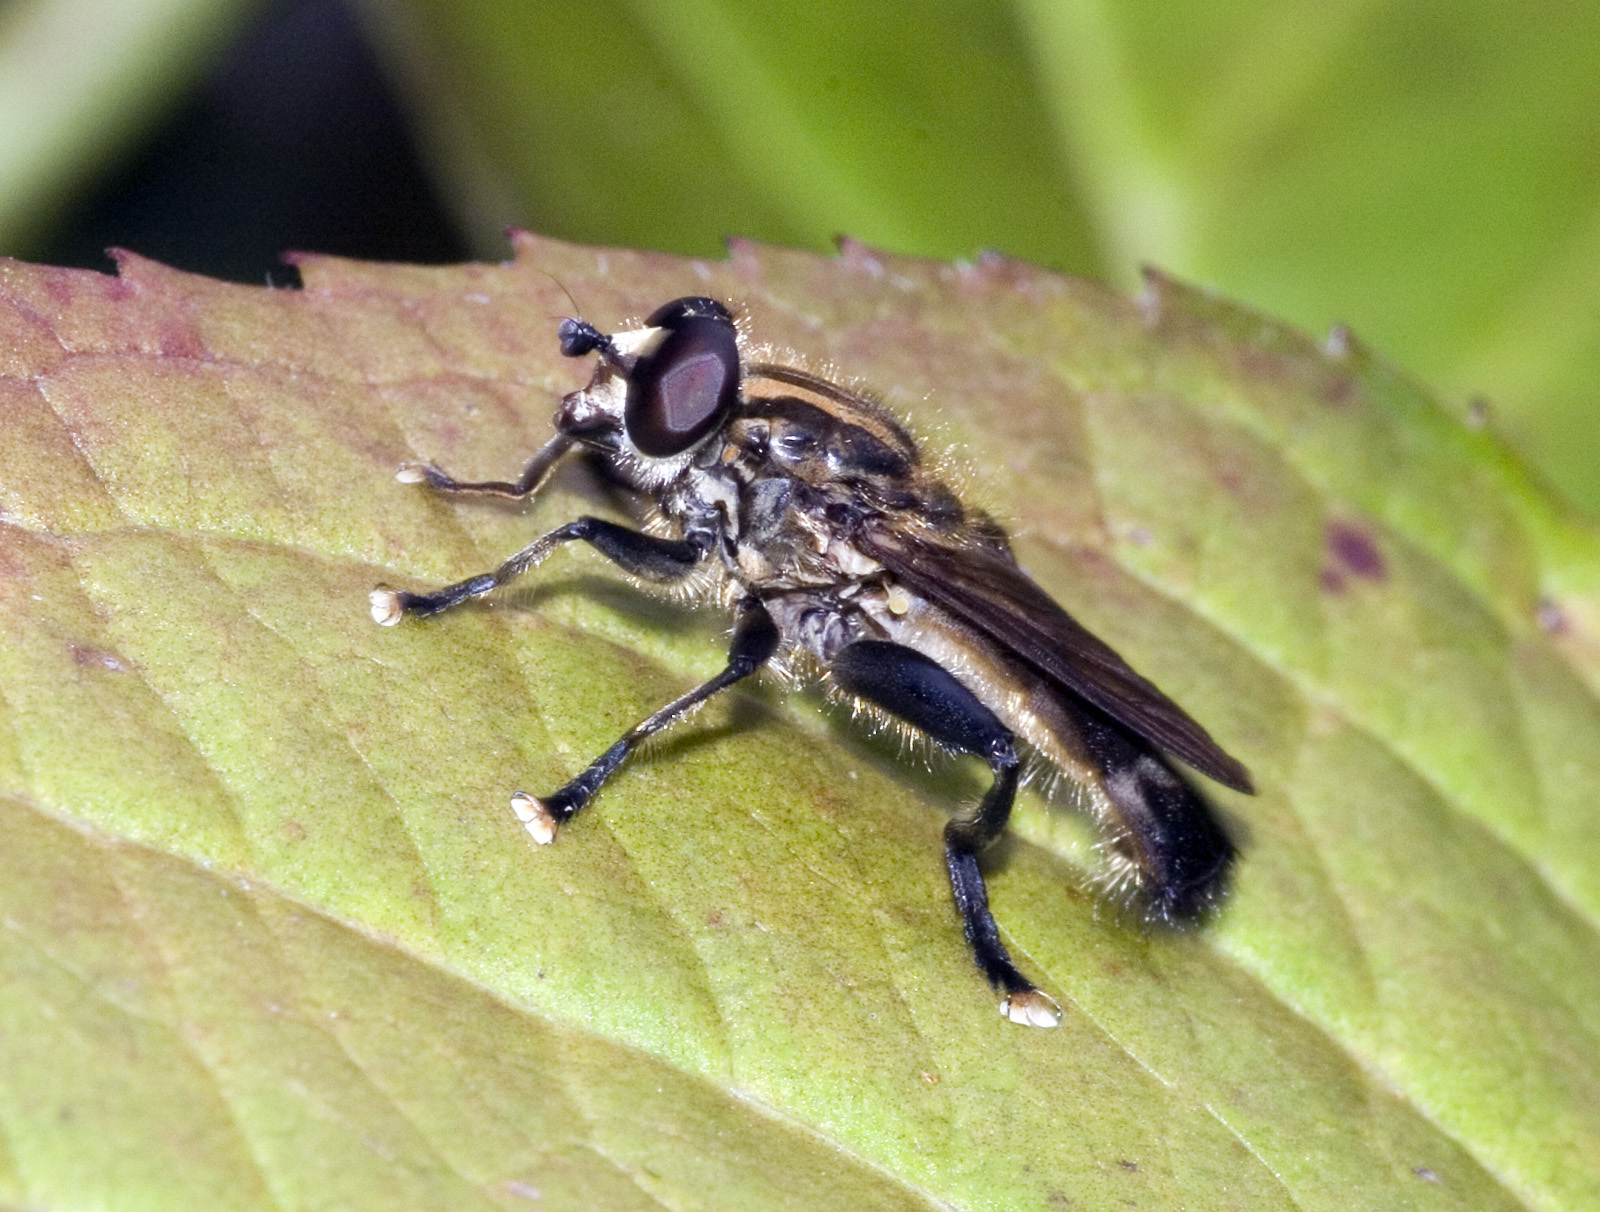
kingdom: Animalia
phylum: Arthropoda
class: Insecta
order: Diptera
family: Syrphidae
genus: Orthoprosopa
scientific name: Orthoprosopa bilineata
